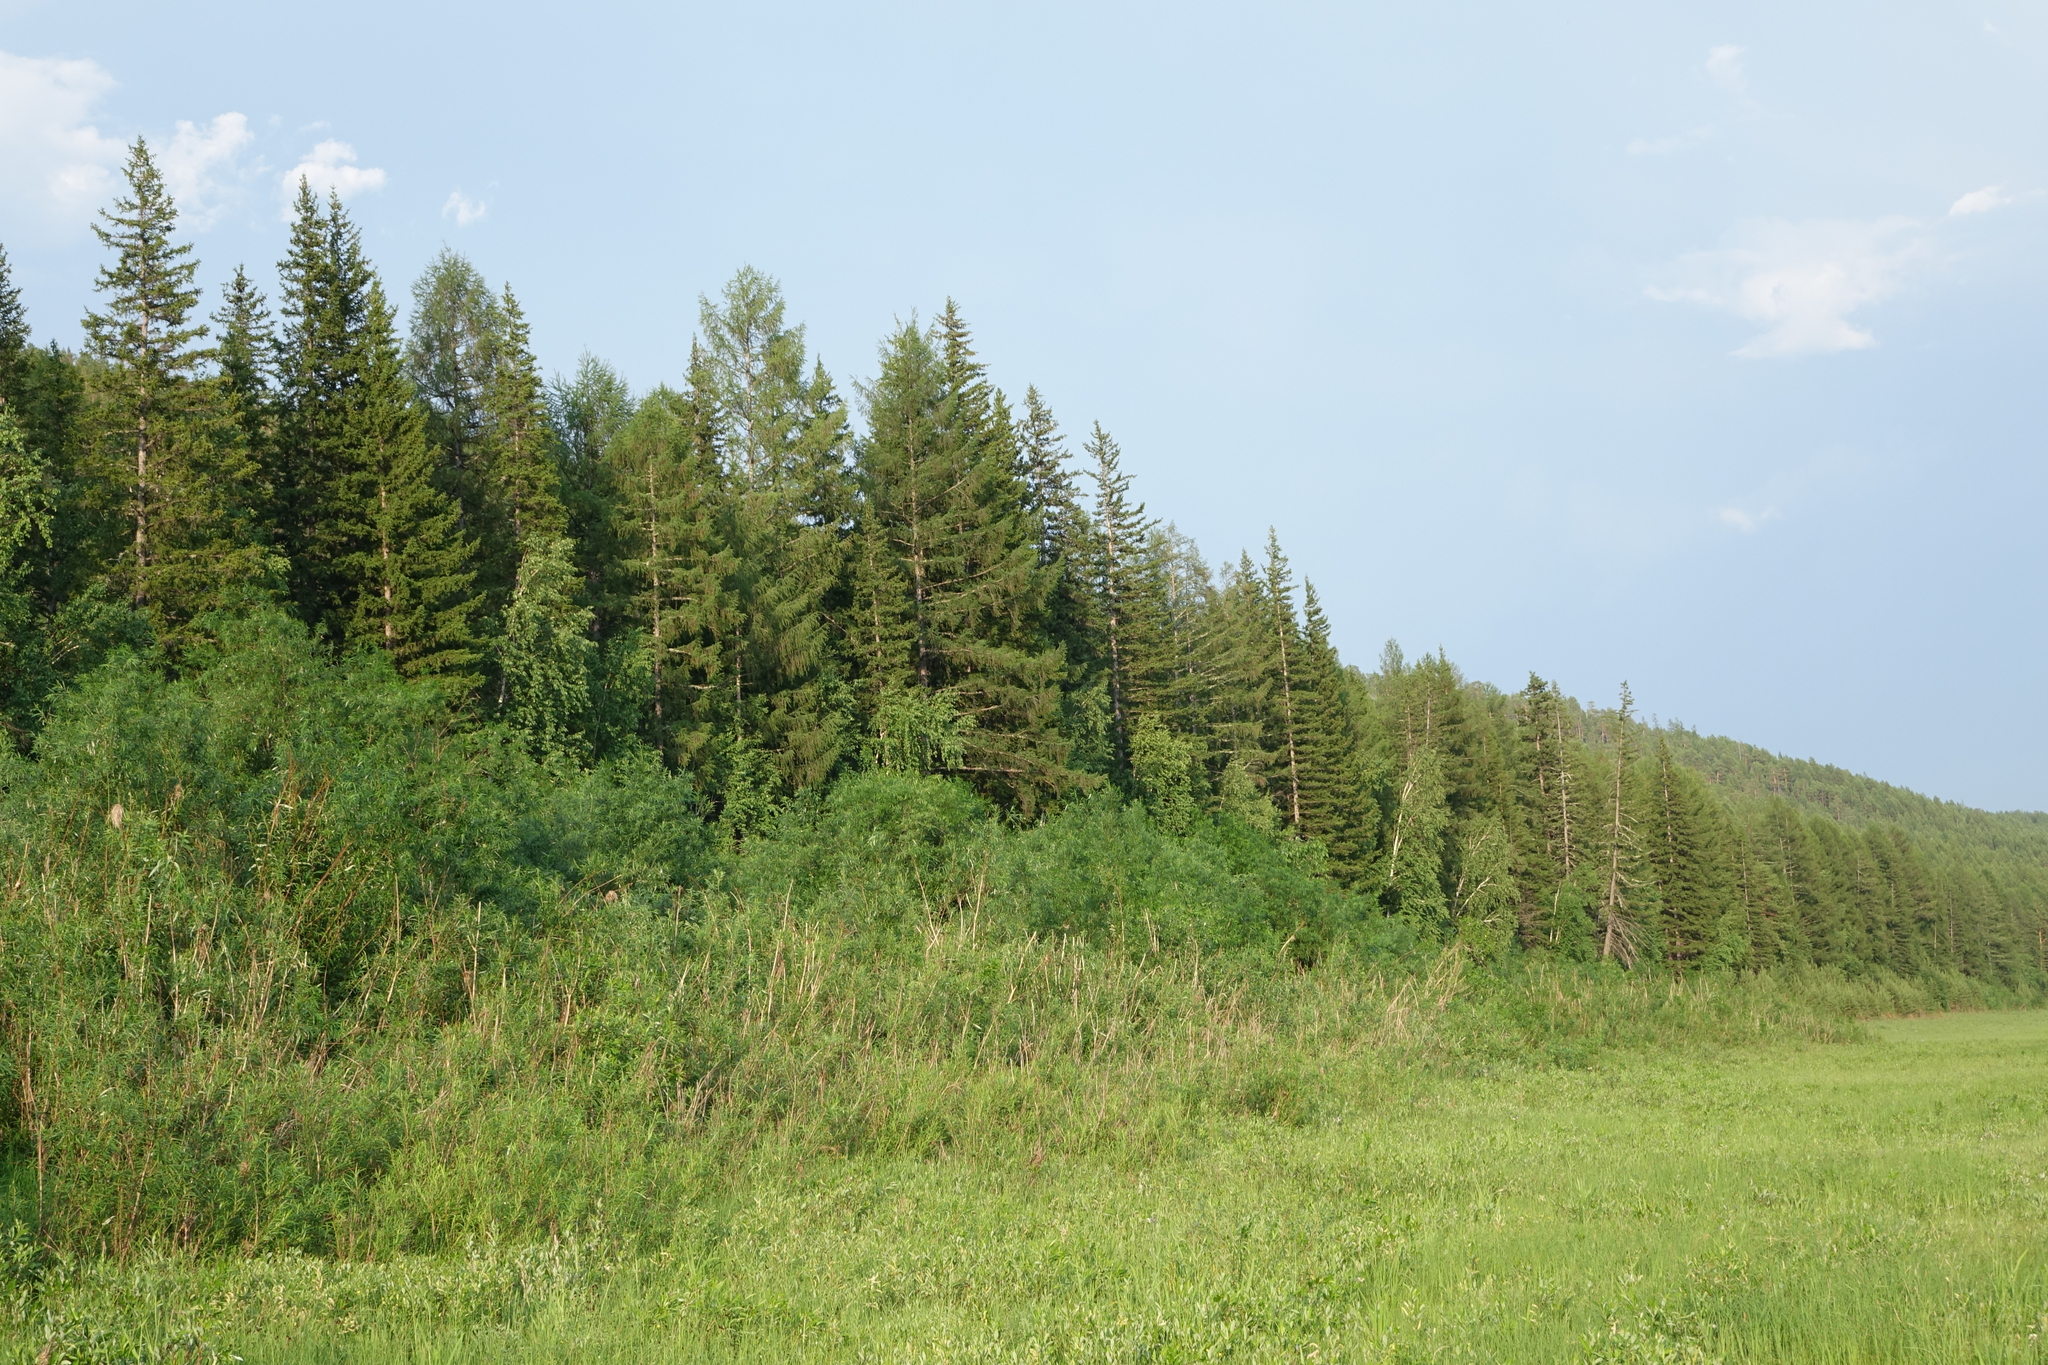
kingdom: Plantae
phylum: Tracheophyta
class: Pinopsida
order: Pinales
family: Pinaceae
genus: Picea
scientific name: Picea obovata
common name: Siberian spruce
